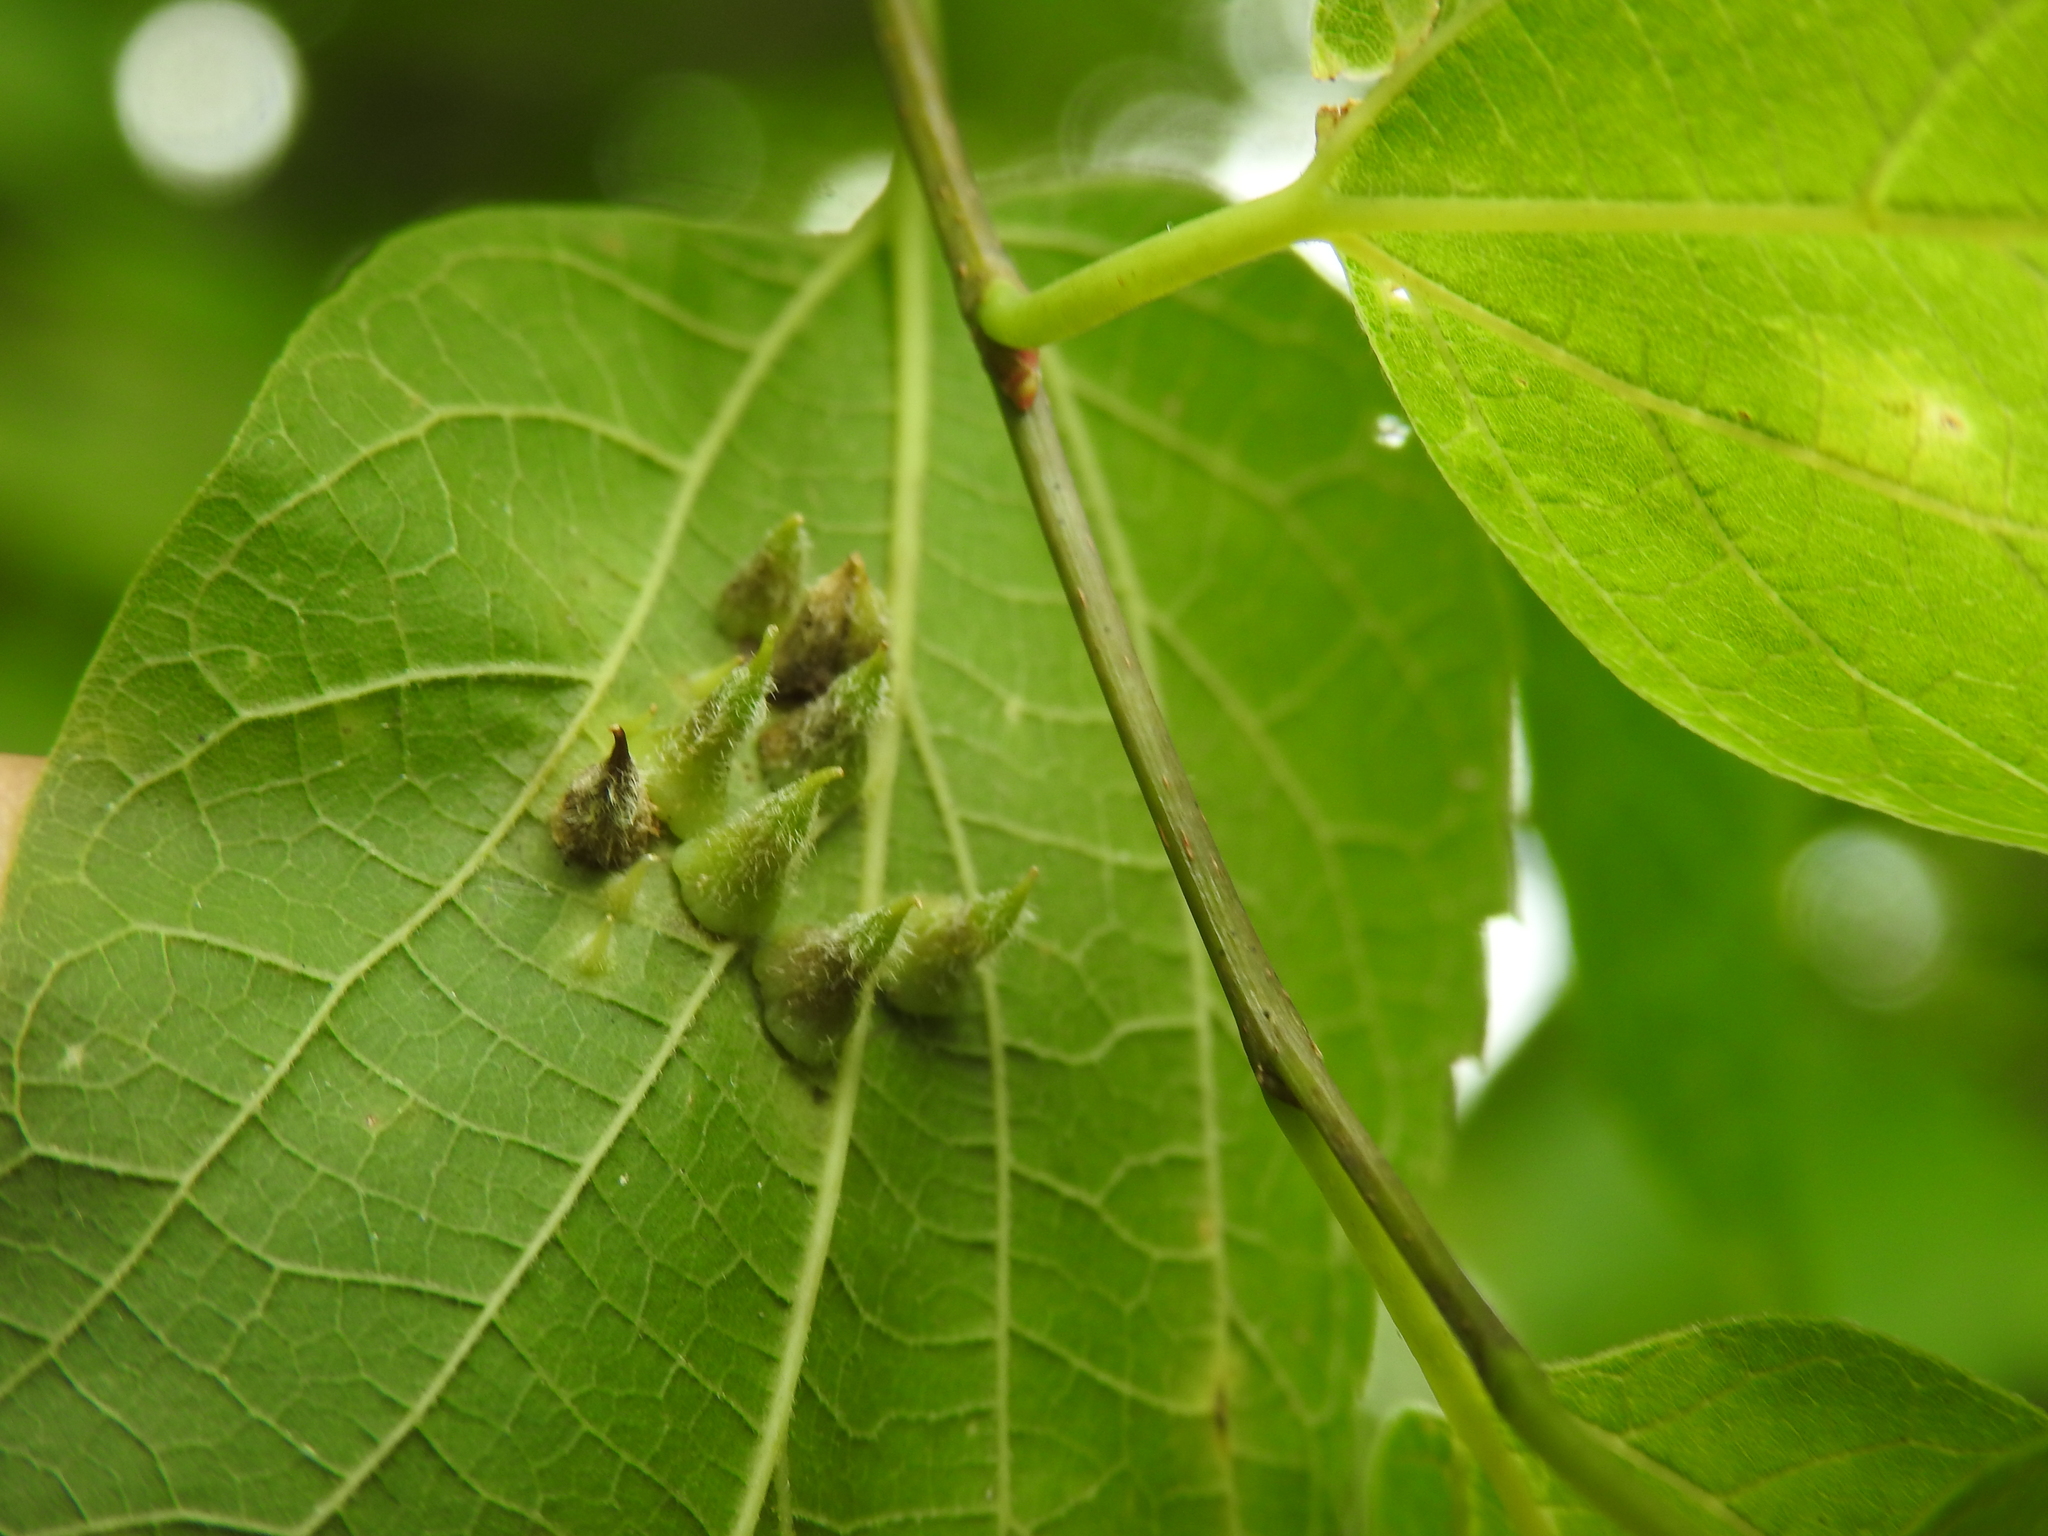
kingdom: Animalia
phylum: Arthropoda
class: Insecta
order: Diptera
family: Cecidomyiidae
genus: Celticecis
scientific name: Celticecis pilosa
